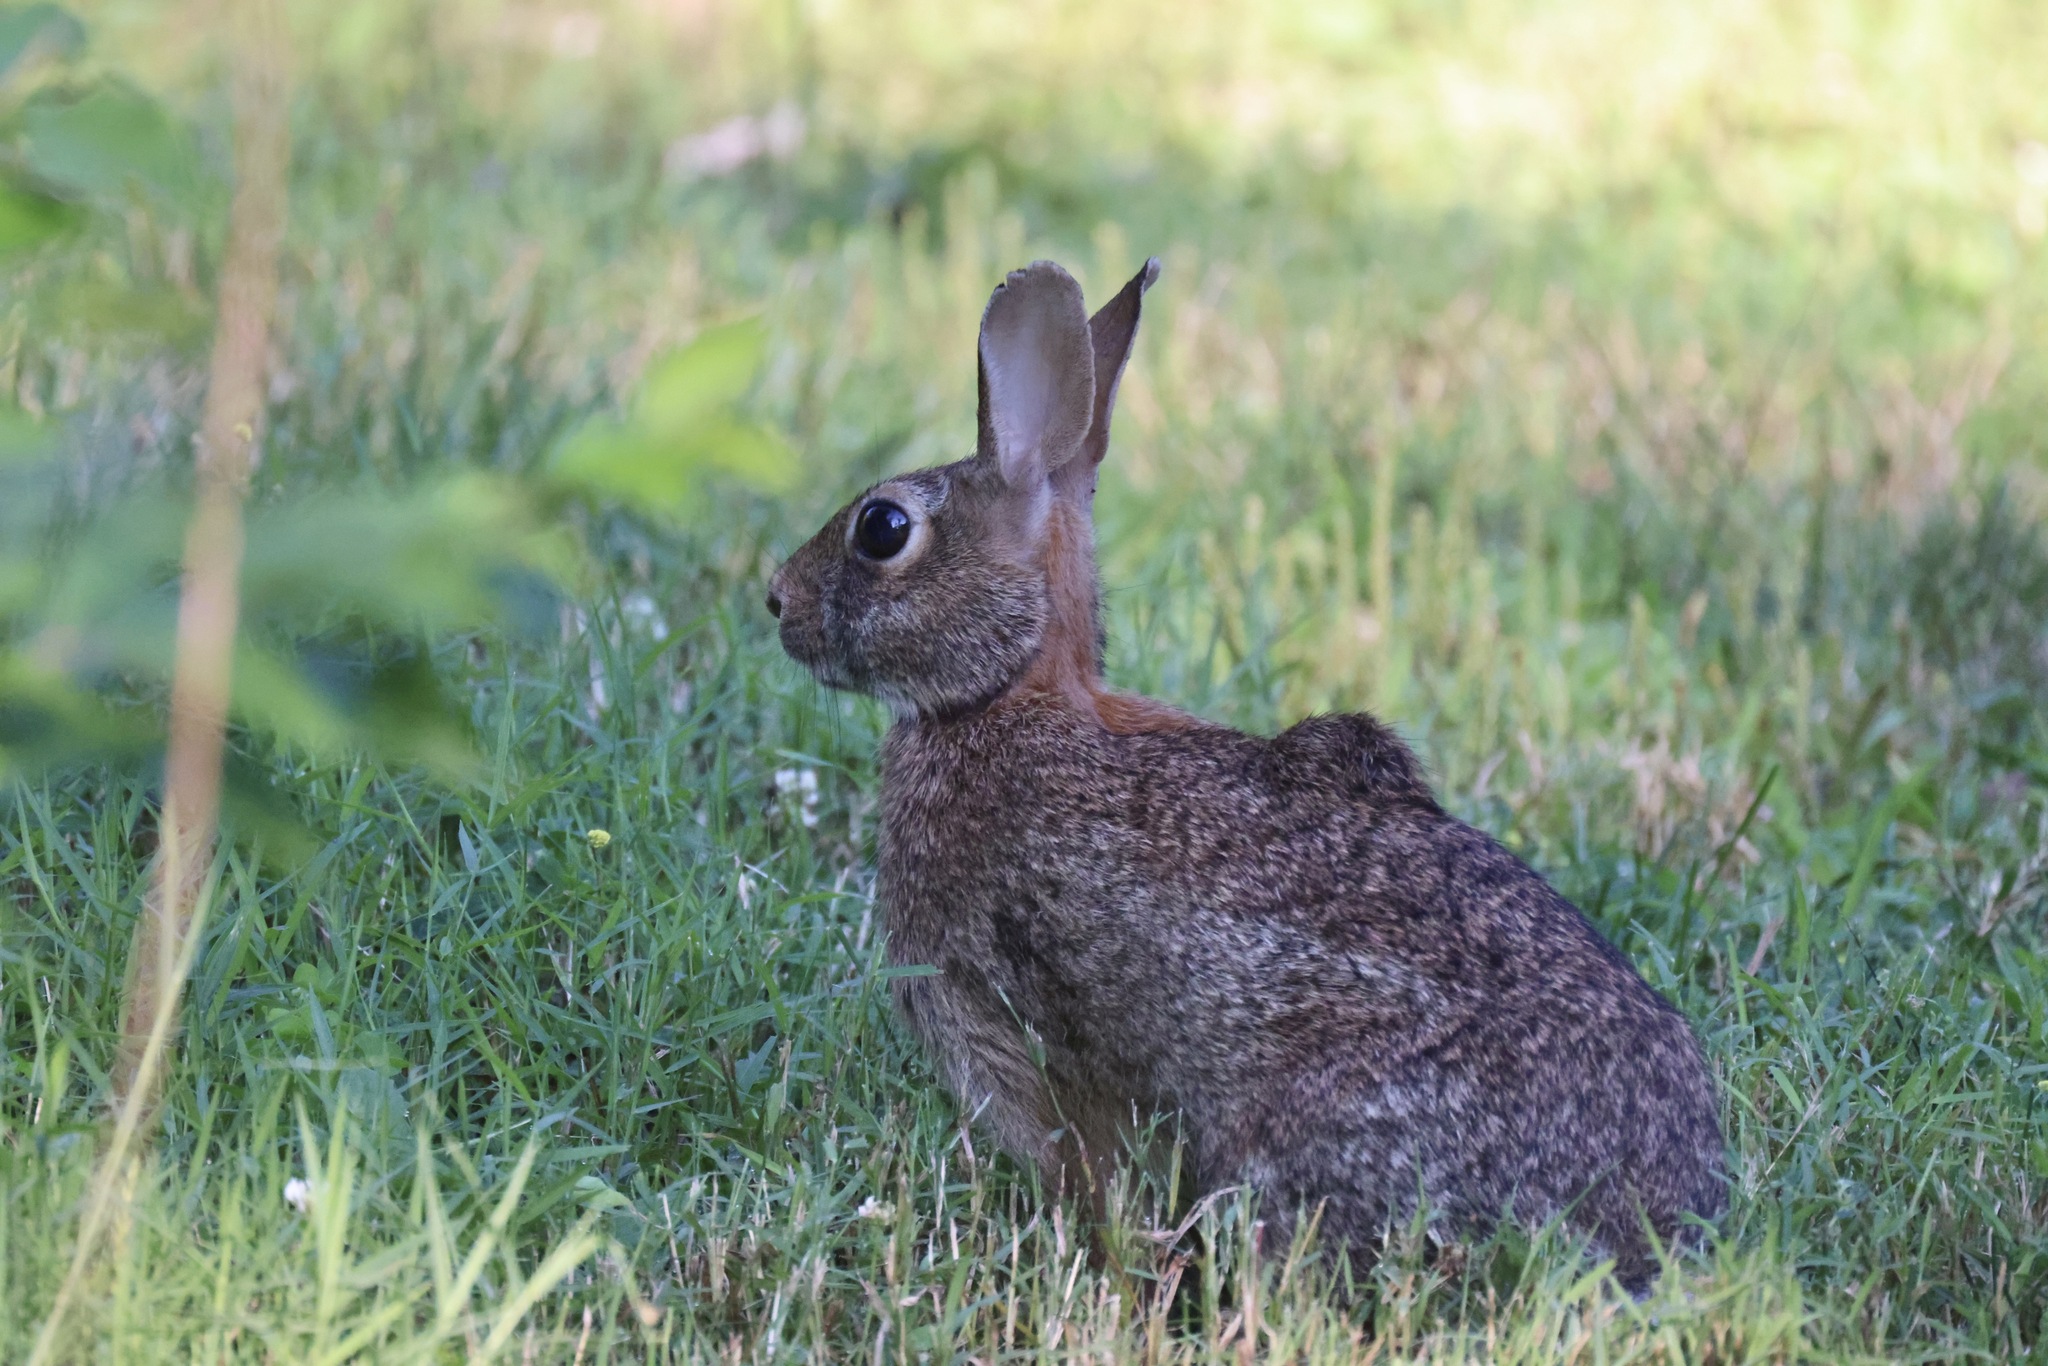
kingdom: Animalia
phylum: Chordata
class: Mammalia
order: Lagomorpha
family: Leporidae
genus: Sylvilagus
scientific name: Sylvilagus floridanus
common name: Eastern cottontail
